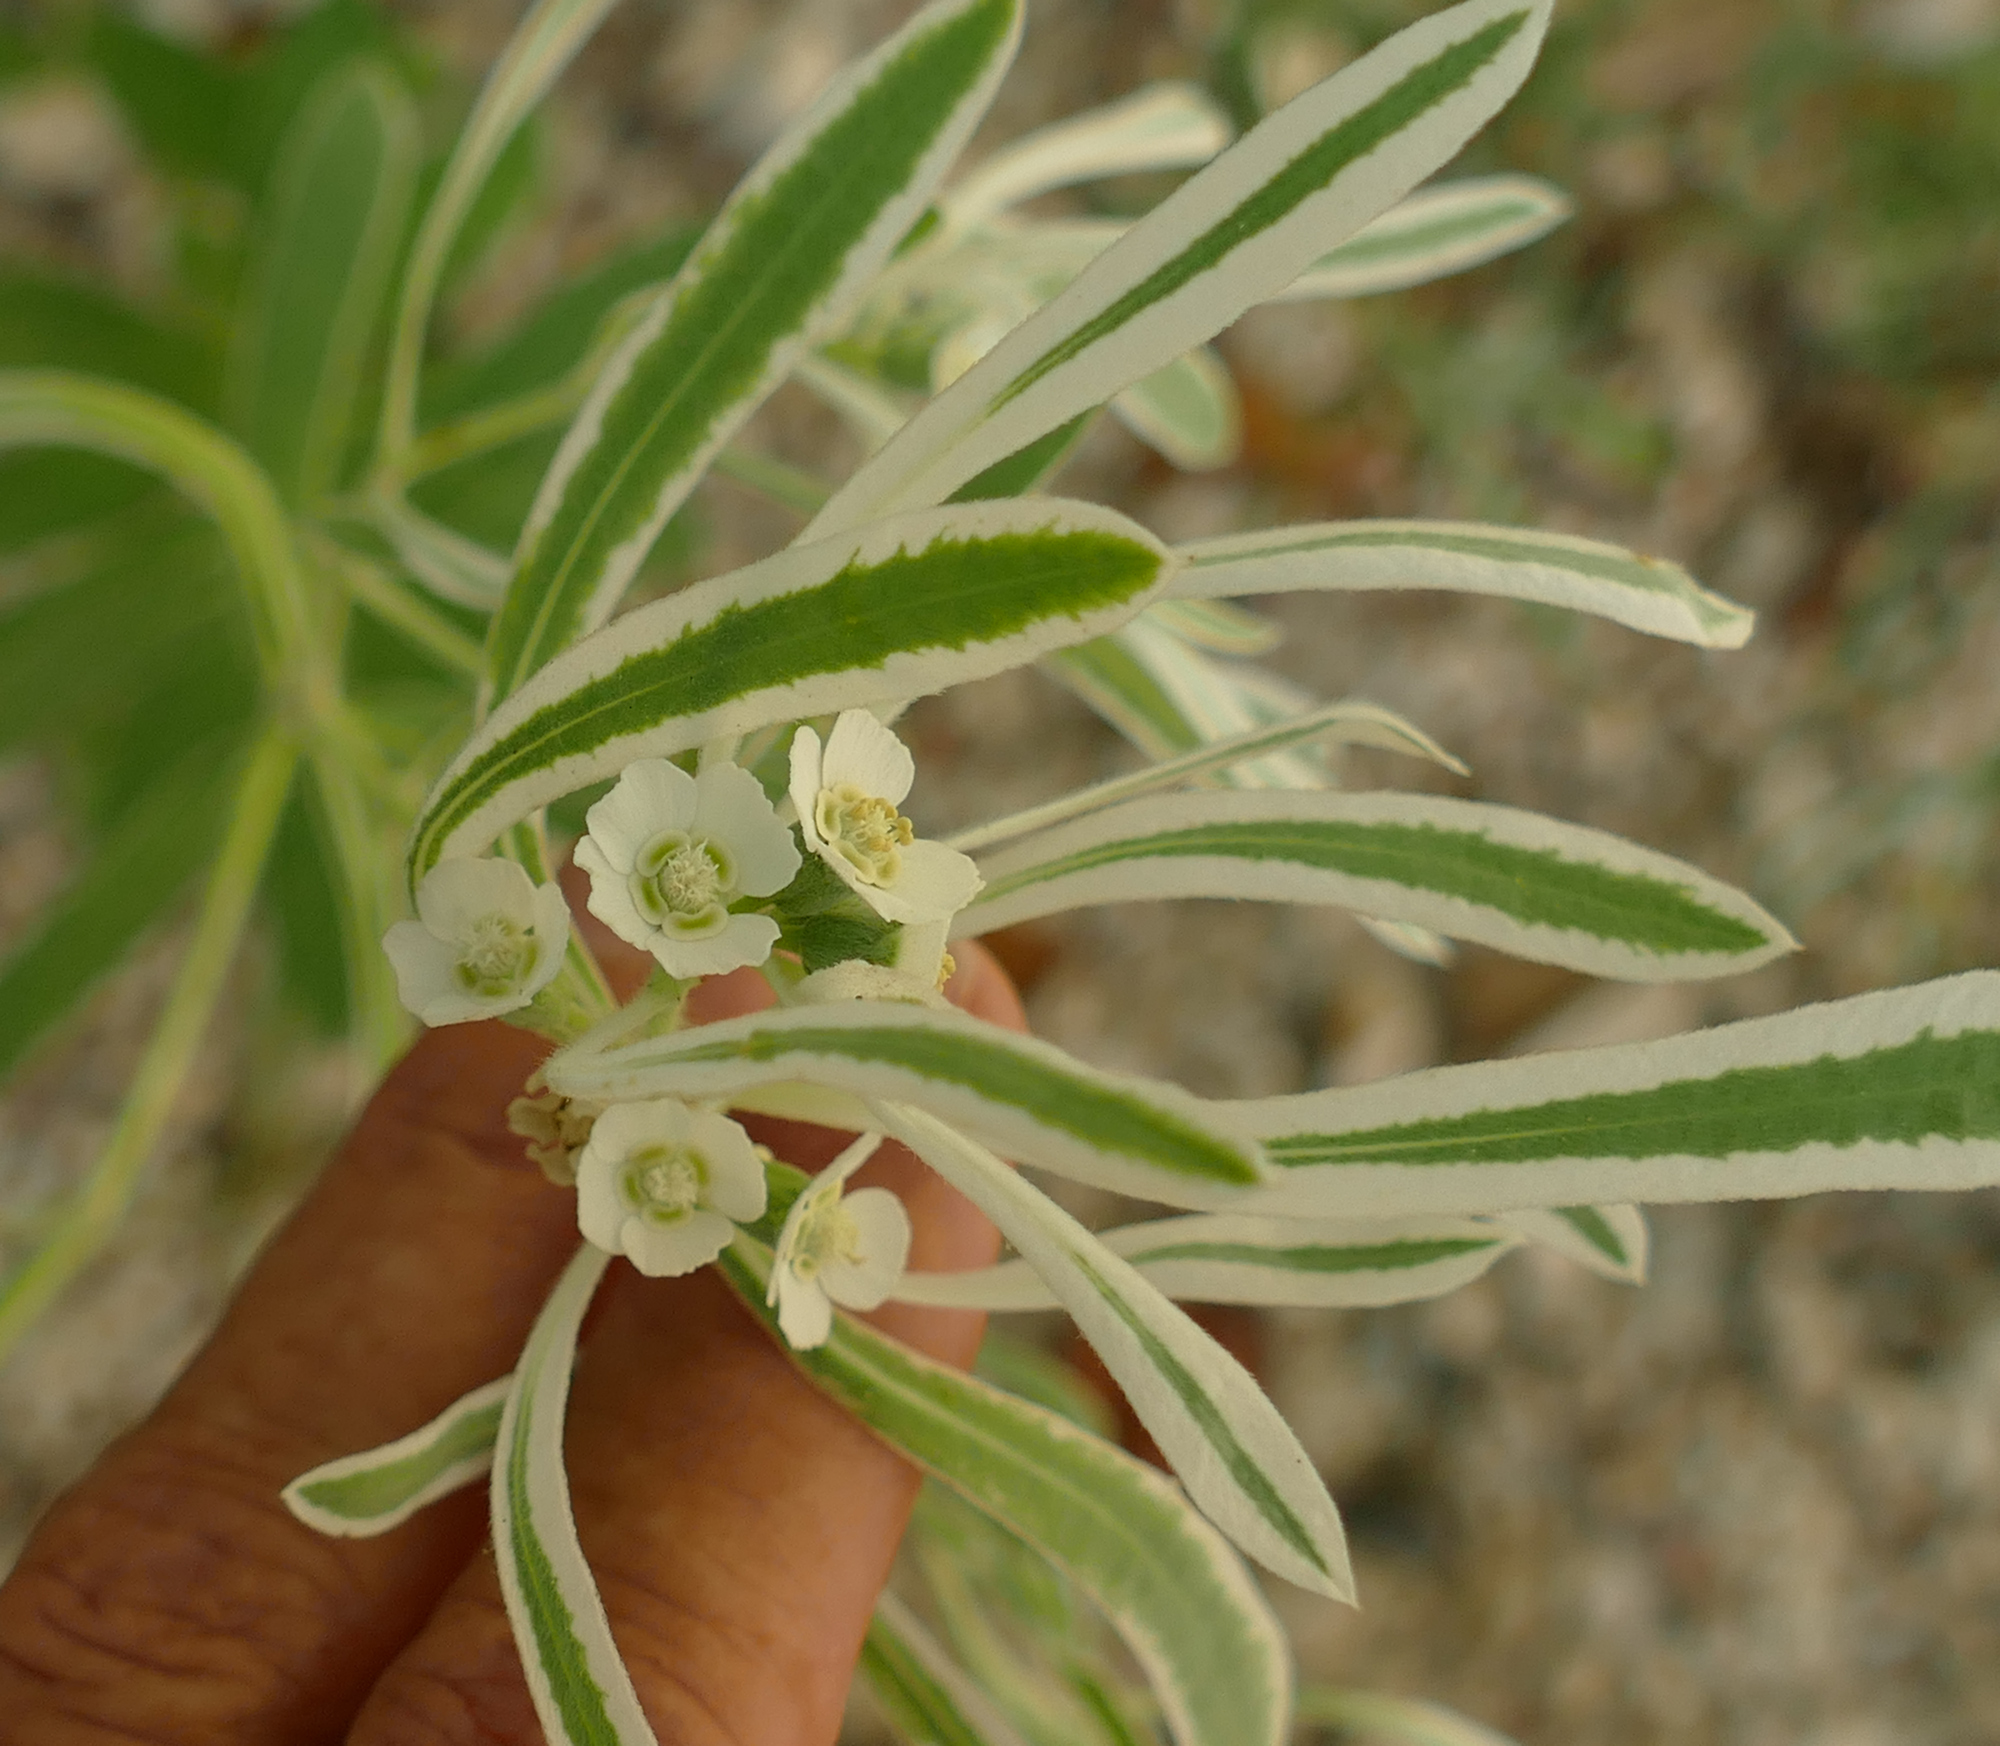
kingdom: Plantae
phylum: Tracheophyta
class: Magnoliopsida
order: Malpighiales
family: Euphorbiaceae
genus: Euphorbia
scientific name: Euphorbia bicolor
